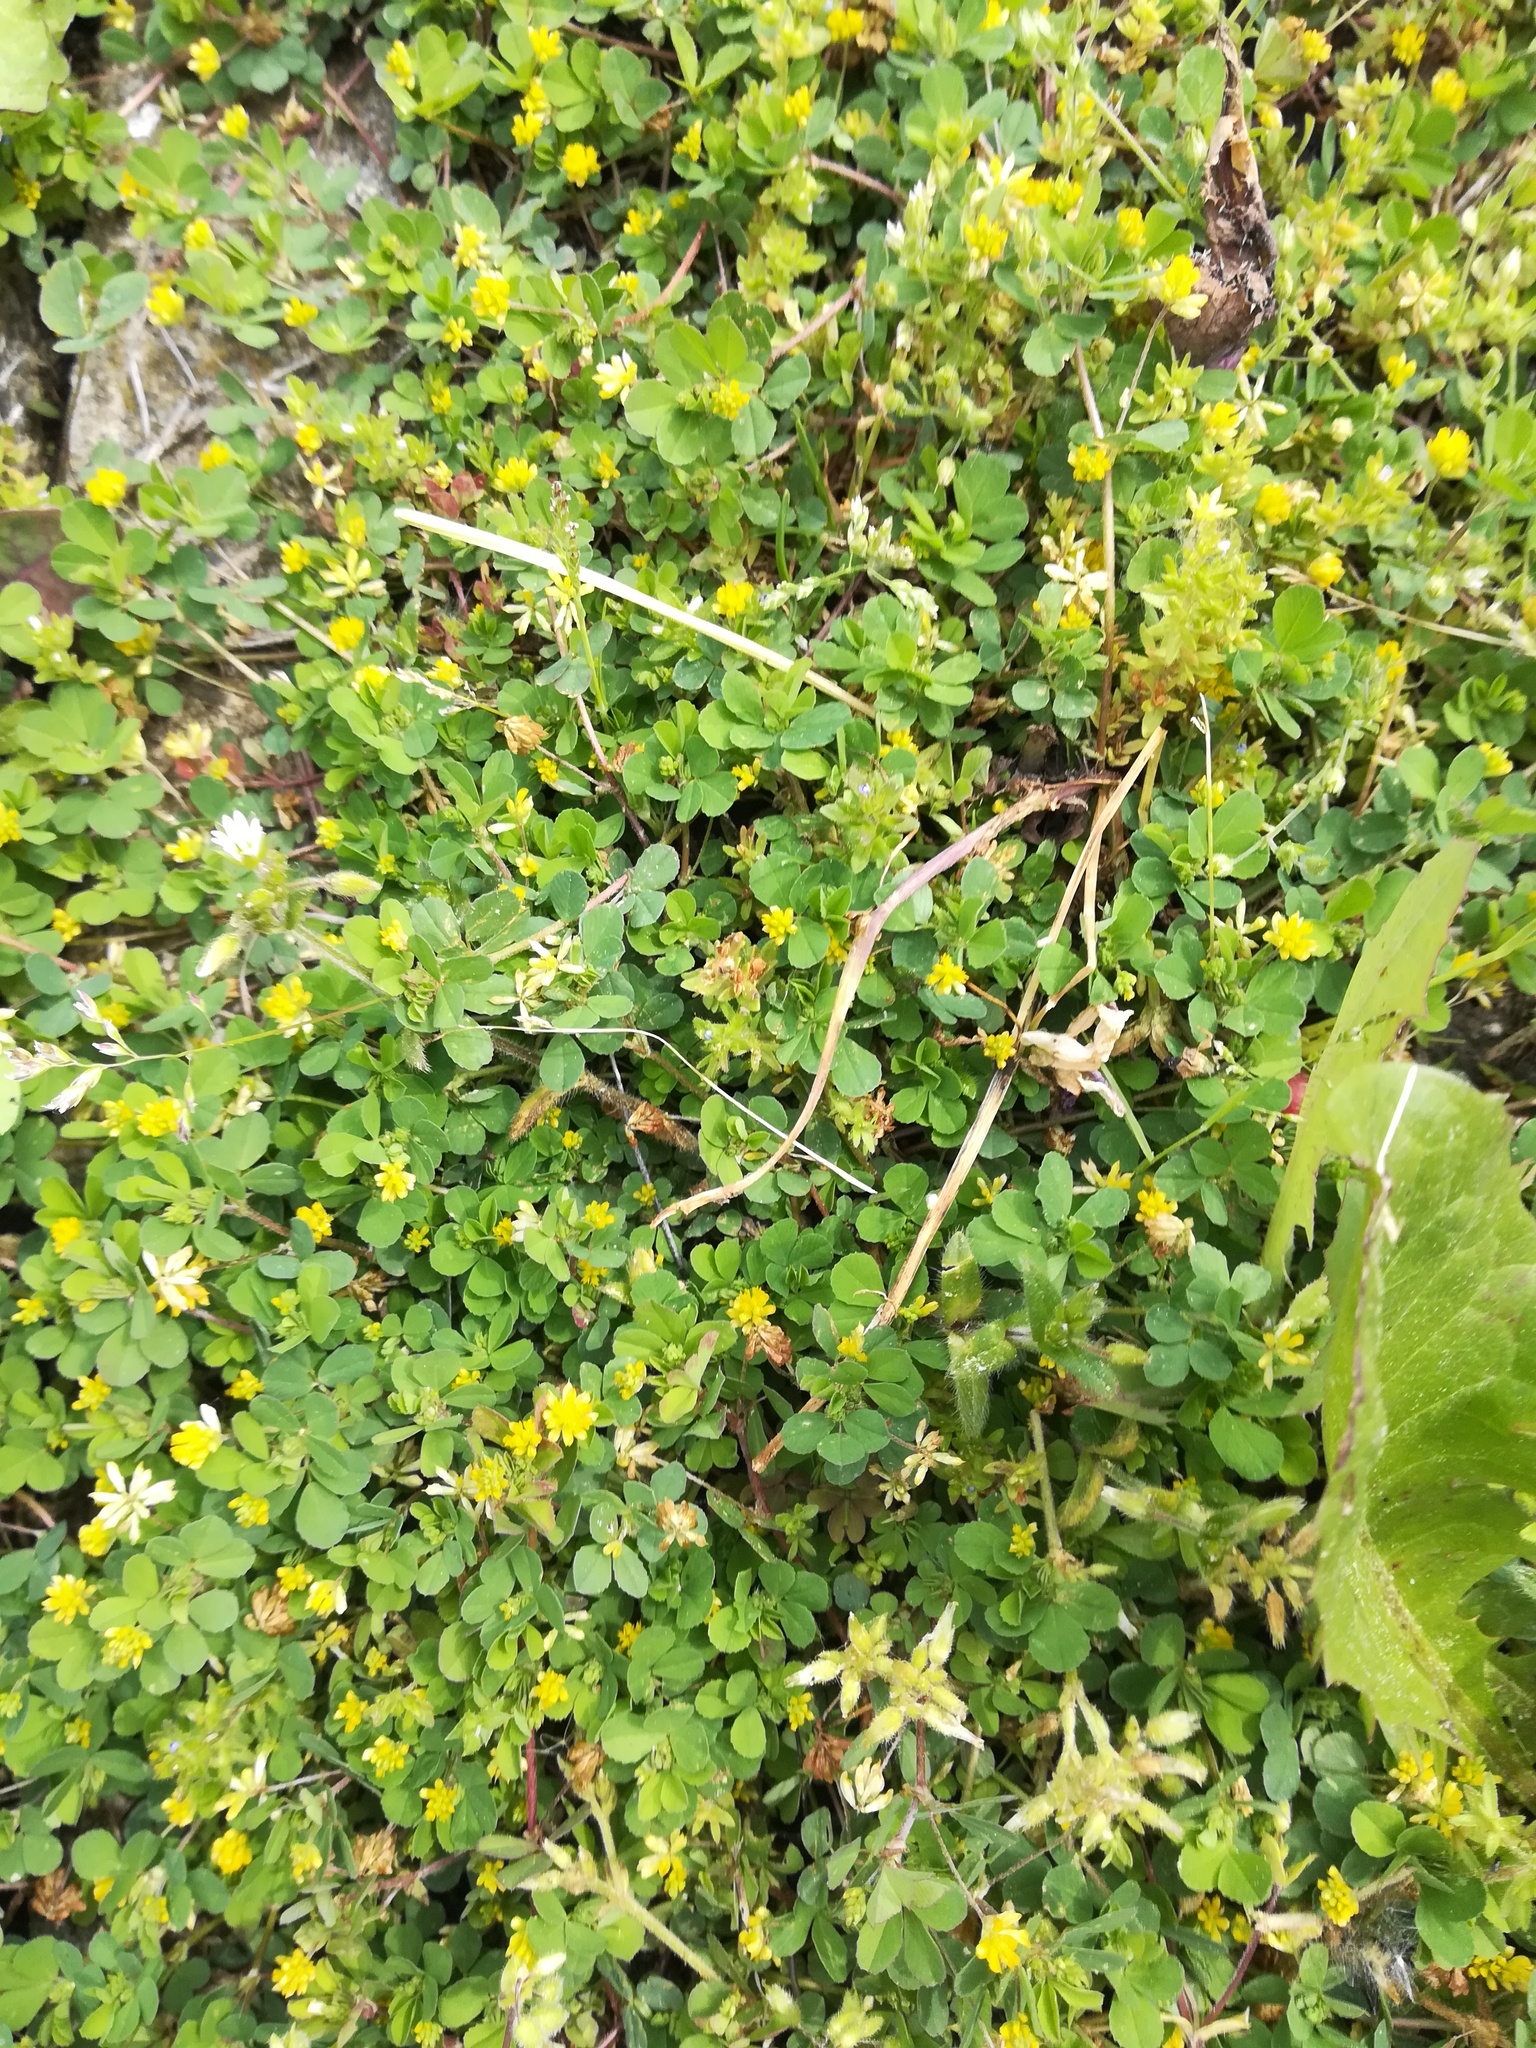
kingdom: Plantae
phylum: Tracheophyta
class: Magnoliopsida
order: Fabales
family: Fabaceae
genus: Trifolium
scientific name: Trifolium dubium
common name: Suckling clover
